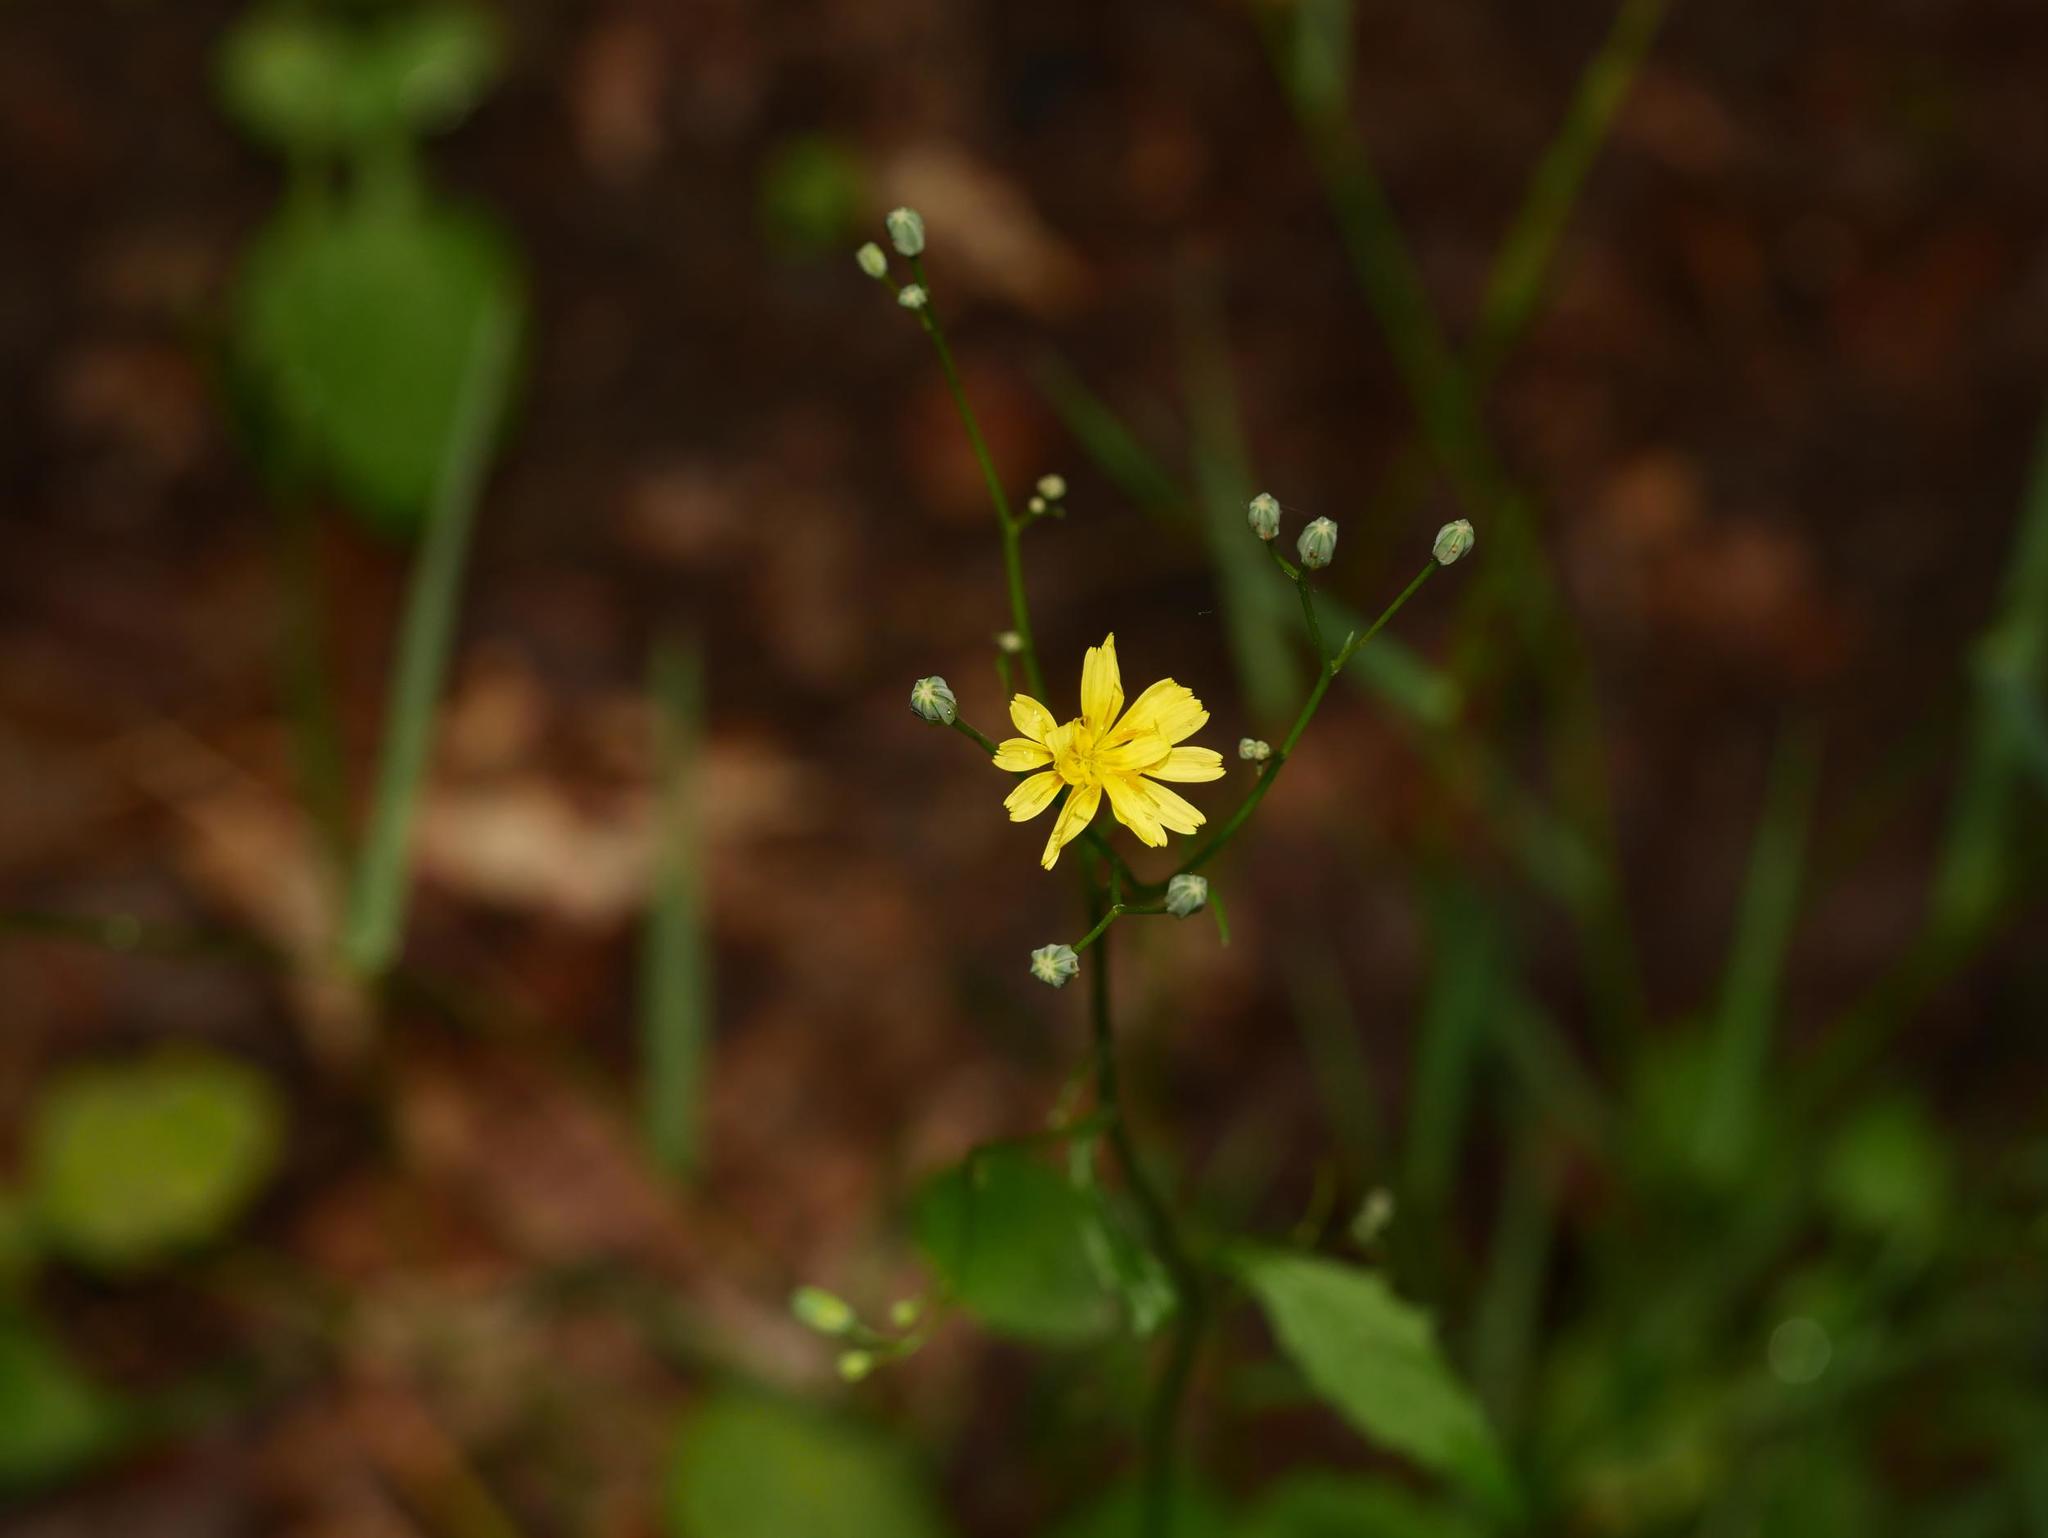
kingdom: Plantae
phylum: Tracheophyta
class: Magnoliopsida
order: Asterales
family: Asteraceae
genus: Lapsana
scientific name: Lapsana communis
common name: Nipplewort
